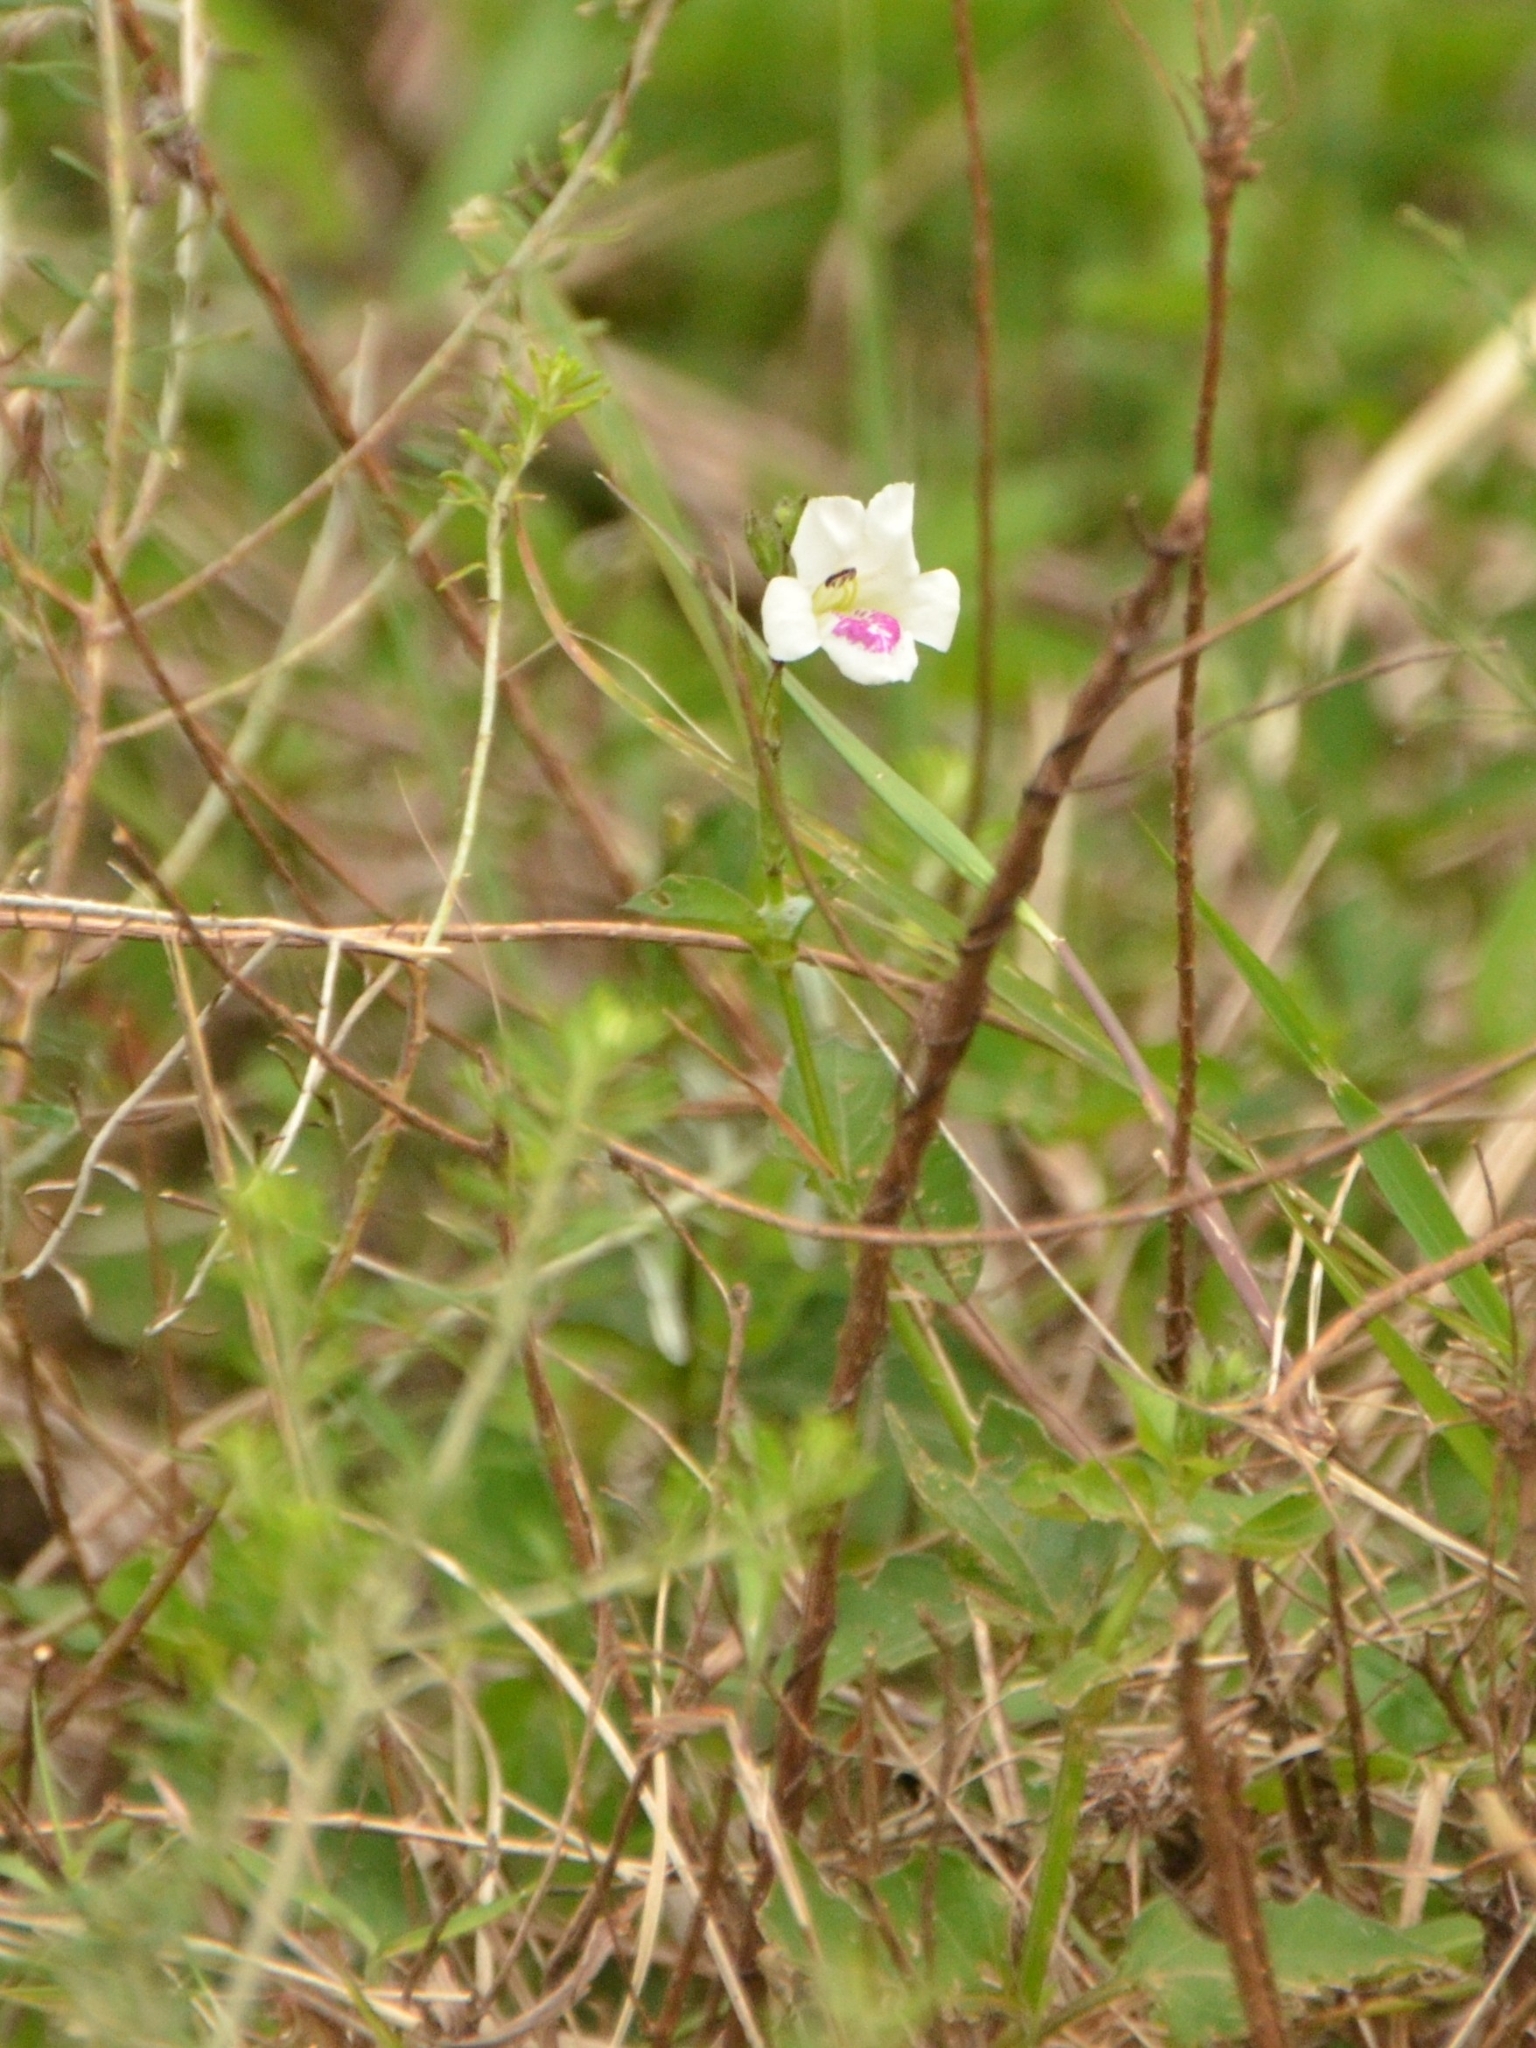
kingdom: Plantae
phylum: Tracheophyta
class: Magnoliopsida
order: Lamiales
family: Acanthaceae
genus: Asystasia
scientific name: Asystasia intrusa
